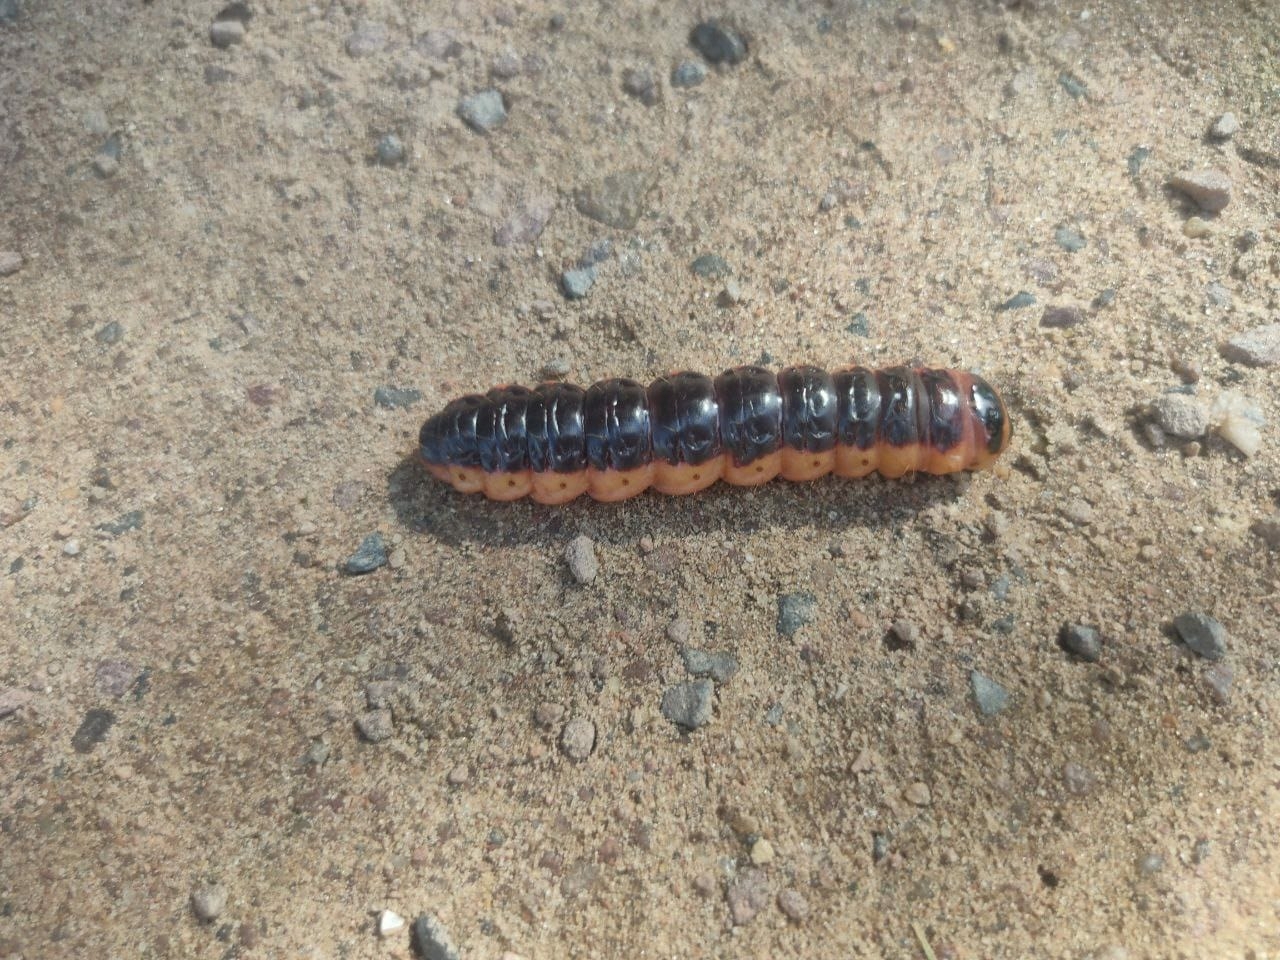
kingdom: Animalia
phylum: Arthropoda
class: Insecta
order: Lepidoptera
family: Cossidae
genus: Cossus
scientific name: Cossus cossus
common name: Goat moth
